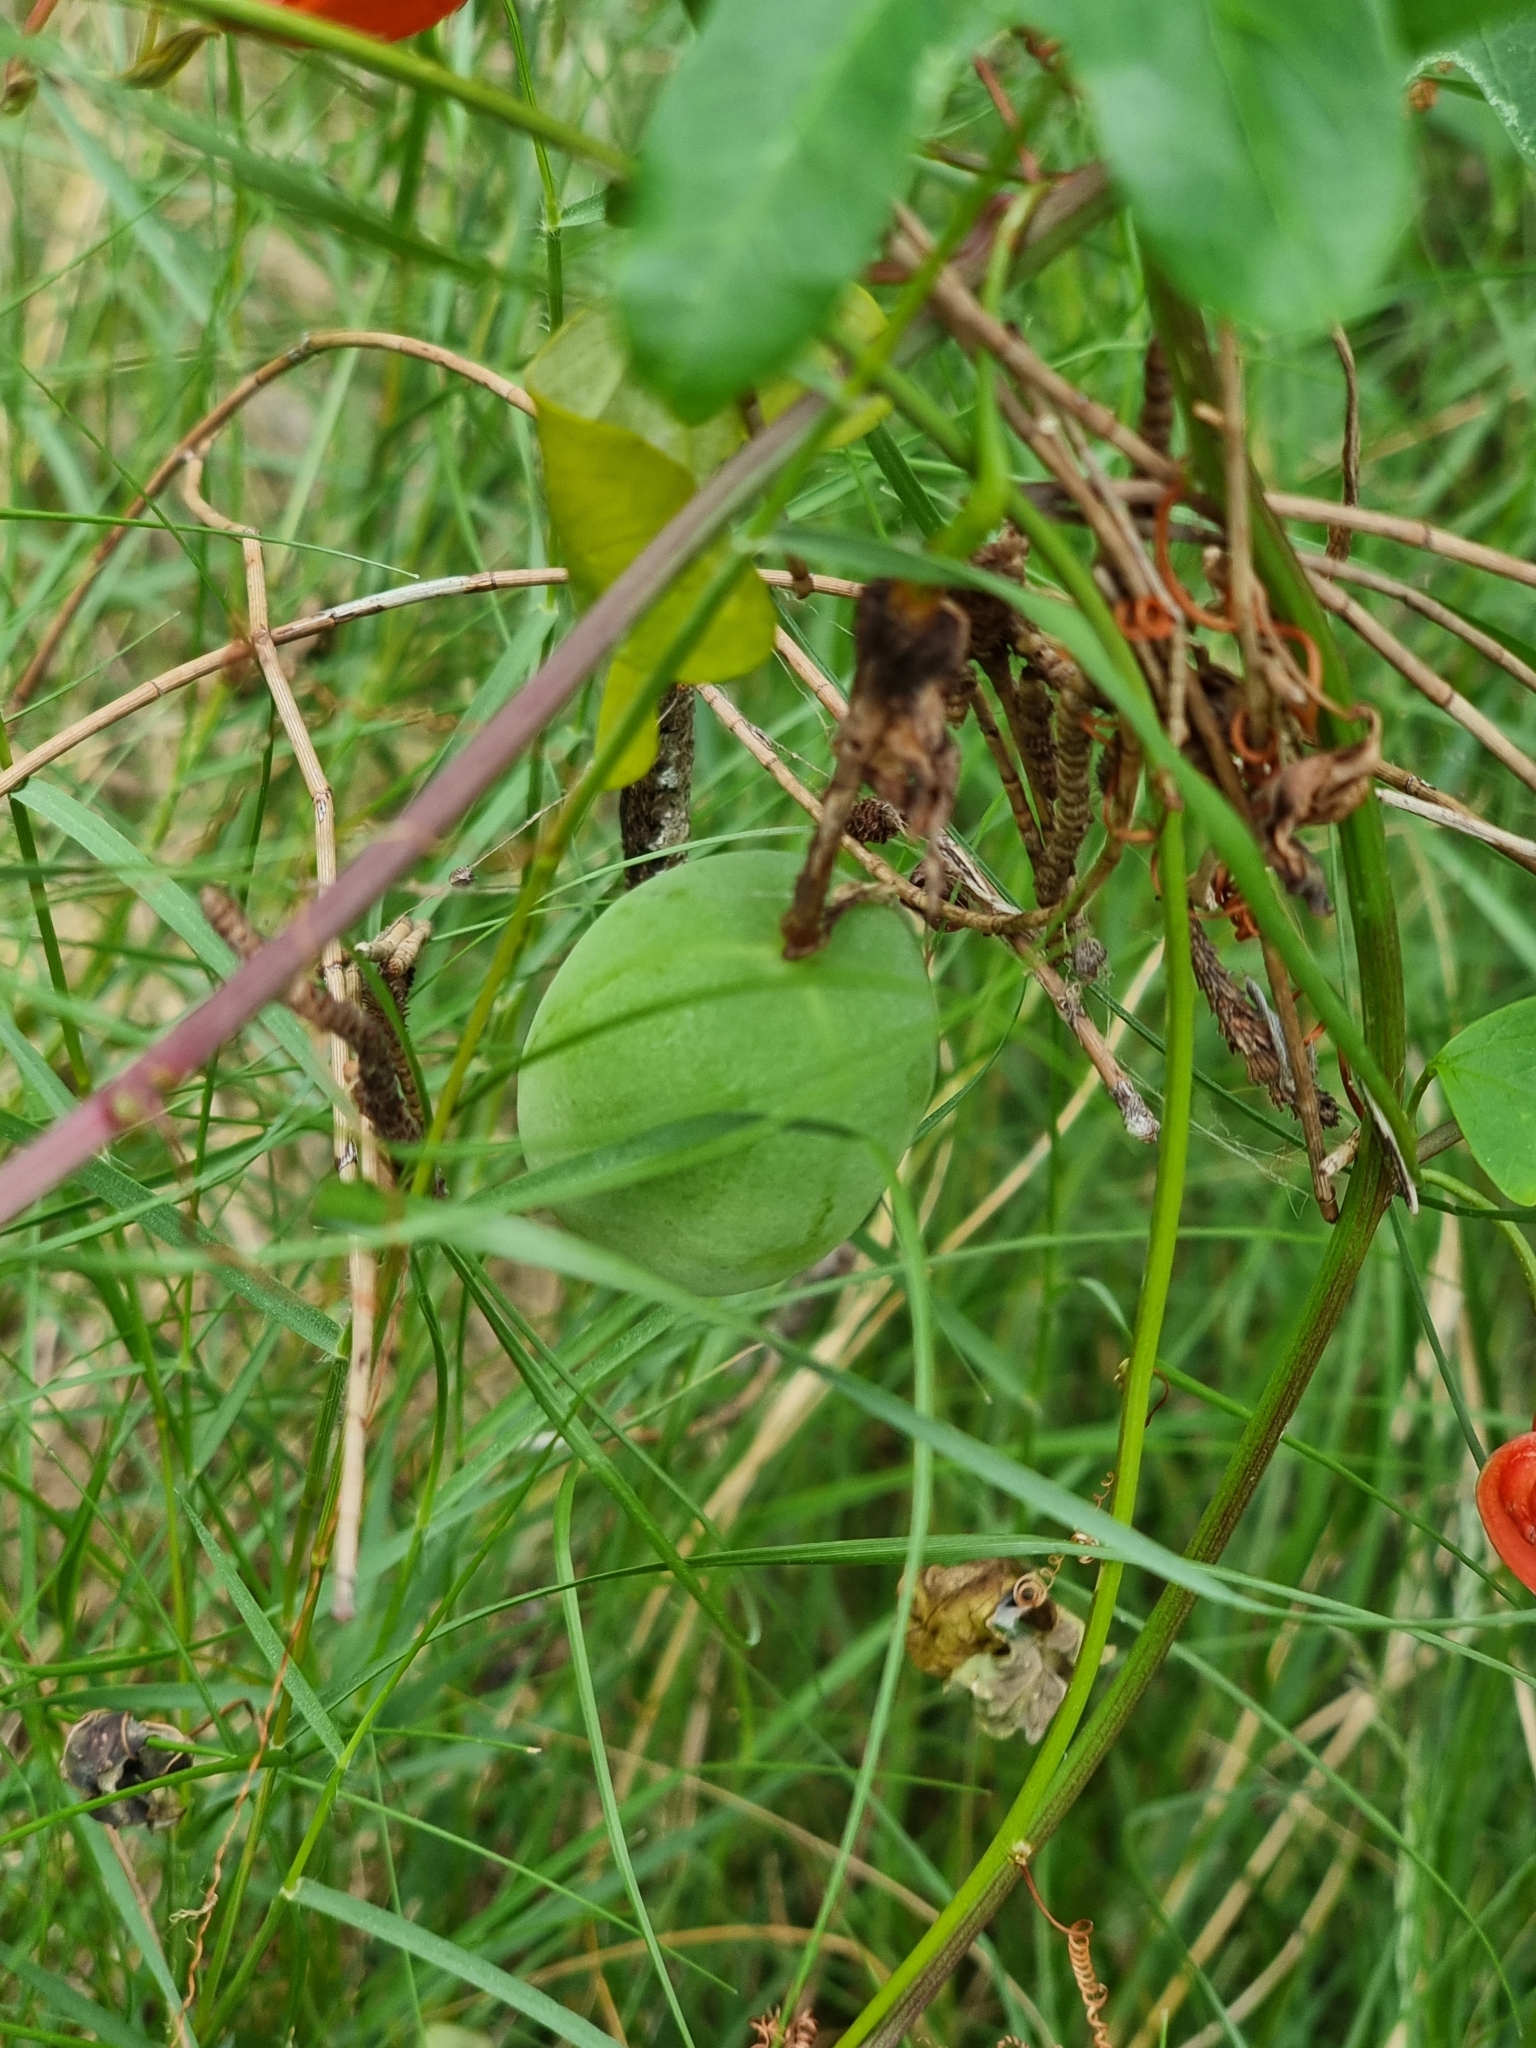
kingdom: Plantae
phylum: Tracheophyta
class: Magnoliopsida
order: Malpighiales
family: Passifloraceae
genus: Passiflora
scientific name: Passiflora aurantia
